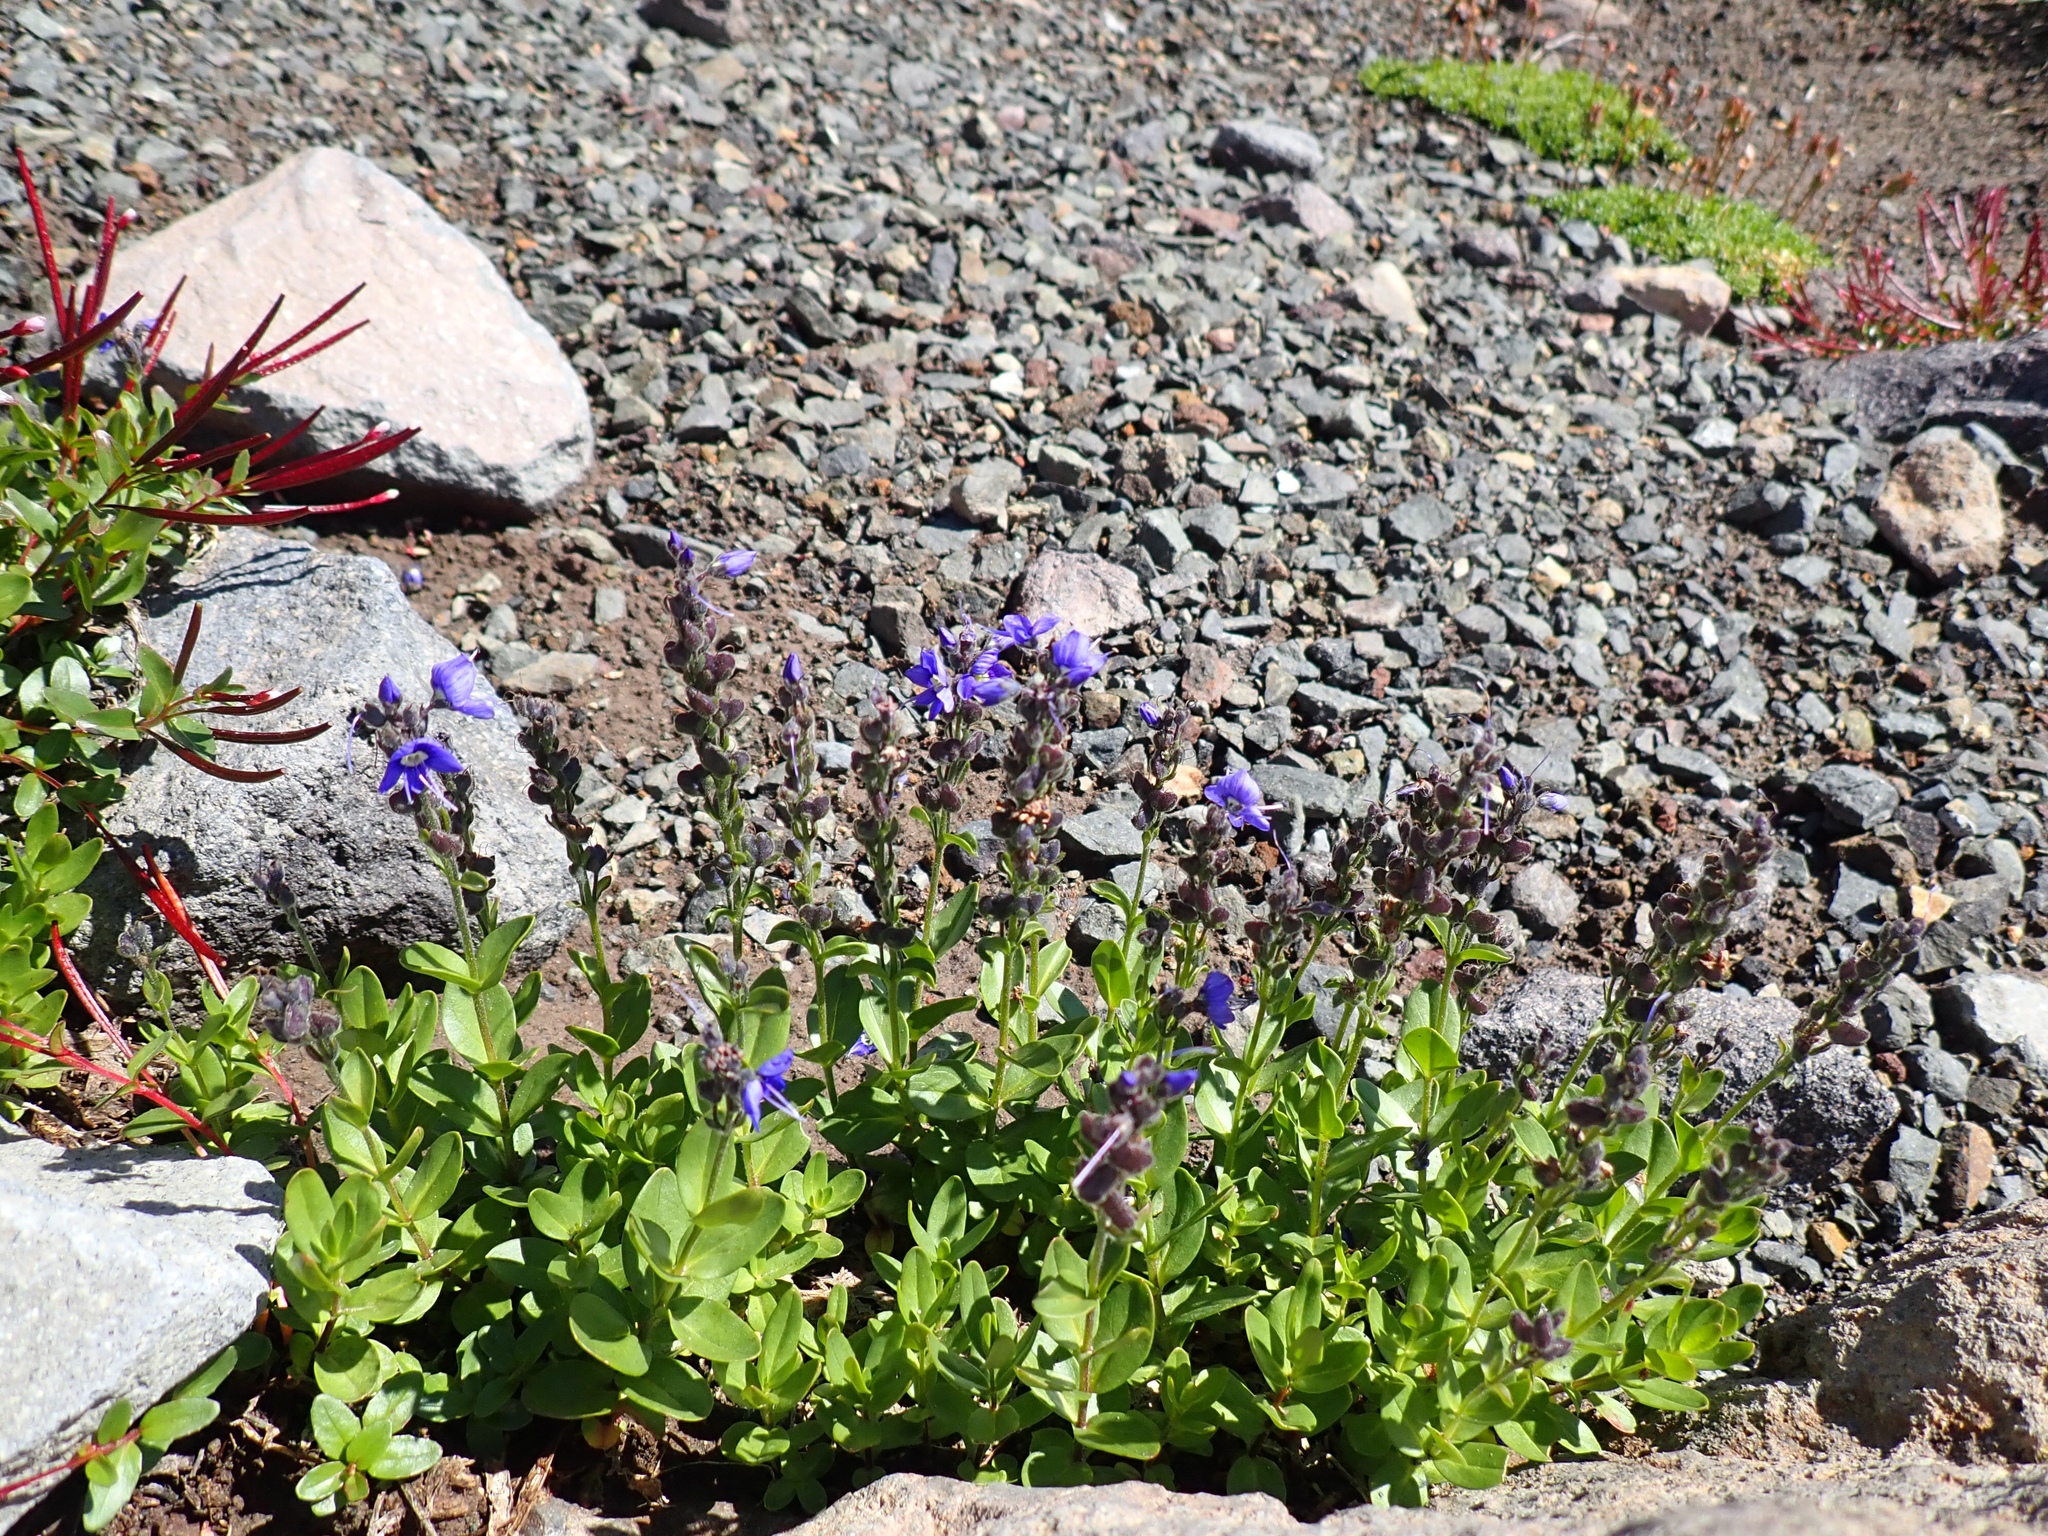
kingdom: Plantae
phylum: Tracheophyta
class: Magnoliopsida
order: Lamiales
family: Plantaginaceae
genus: Veronica
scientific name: Veronica cusickii
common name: Cusick's speedwell
